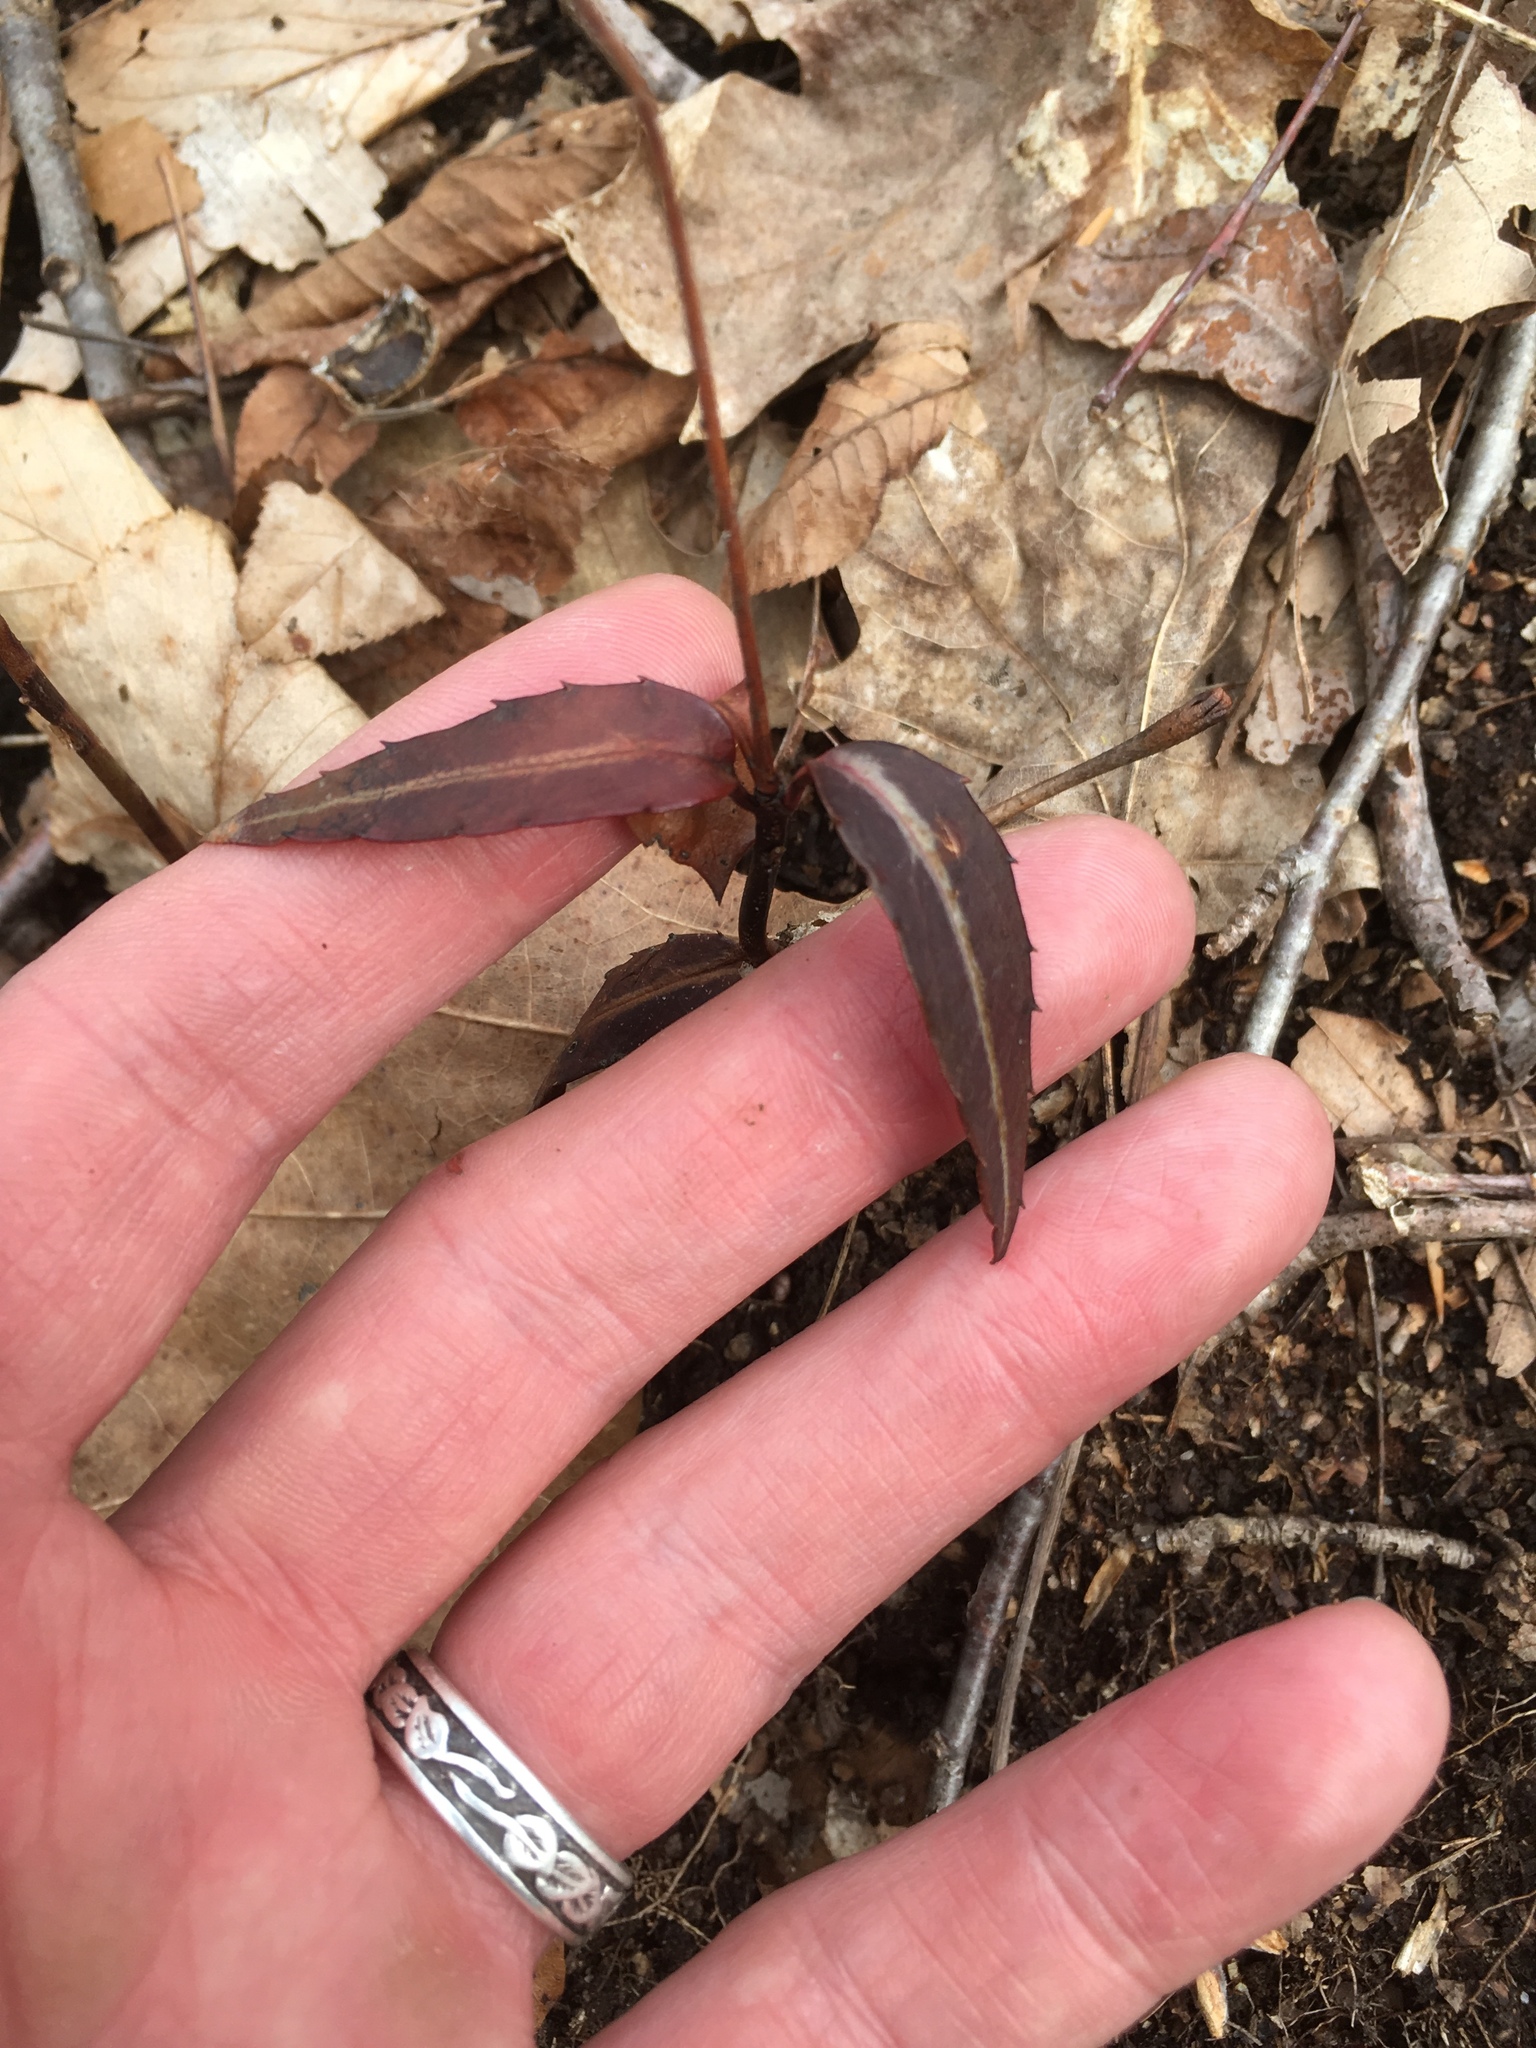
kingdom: Plantae
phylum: Tracheophyta
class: Magnoliopsida
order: Ericales
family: Ericaceae
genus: Chimaphila
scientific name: Chimaphila maculata
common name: Spotted pipsissewa
